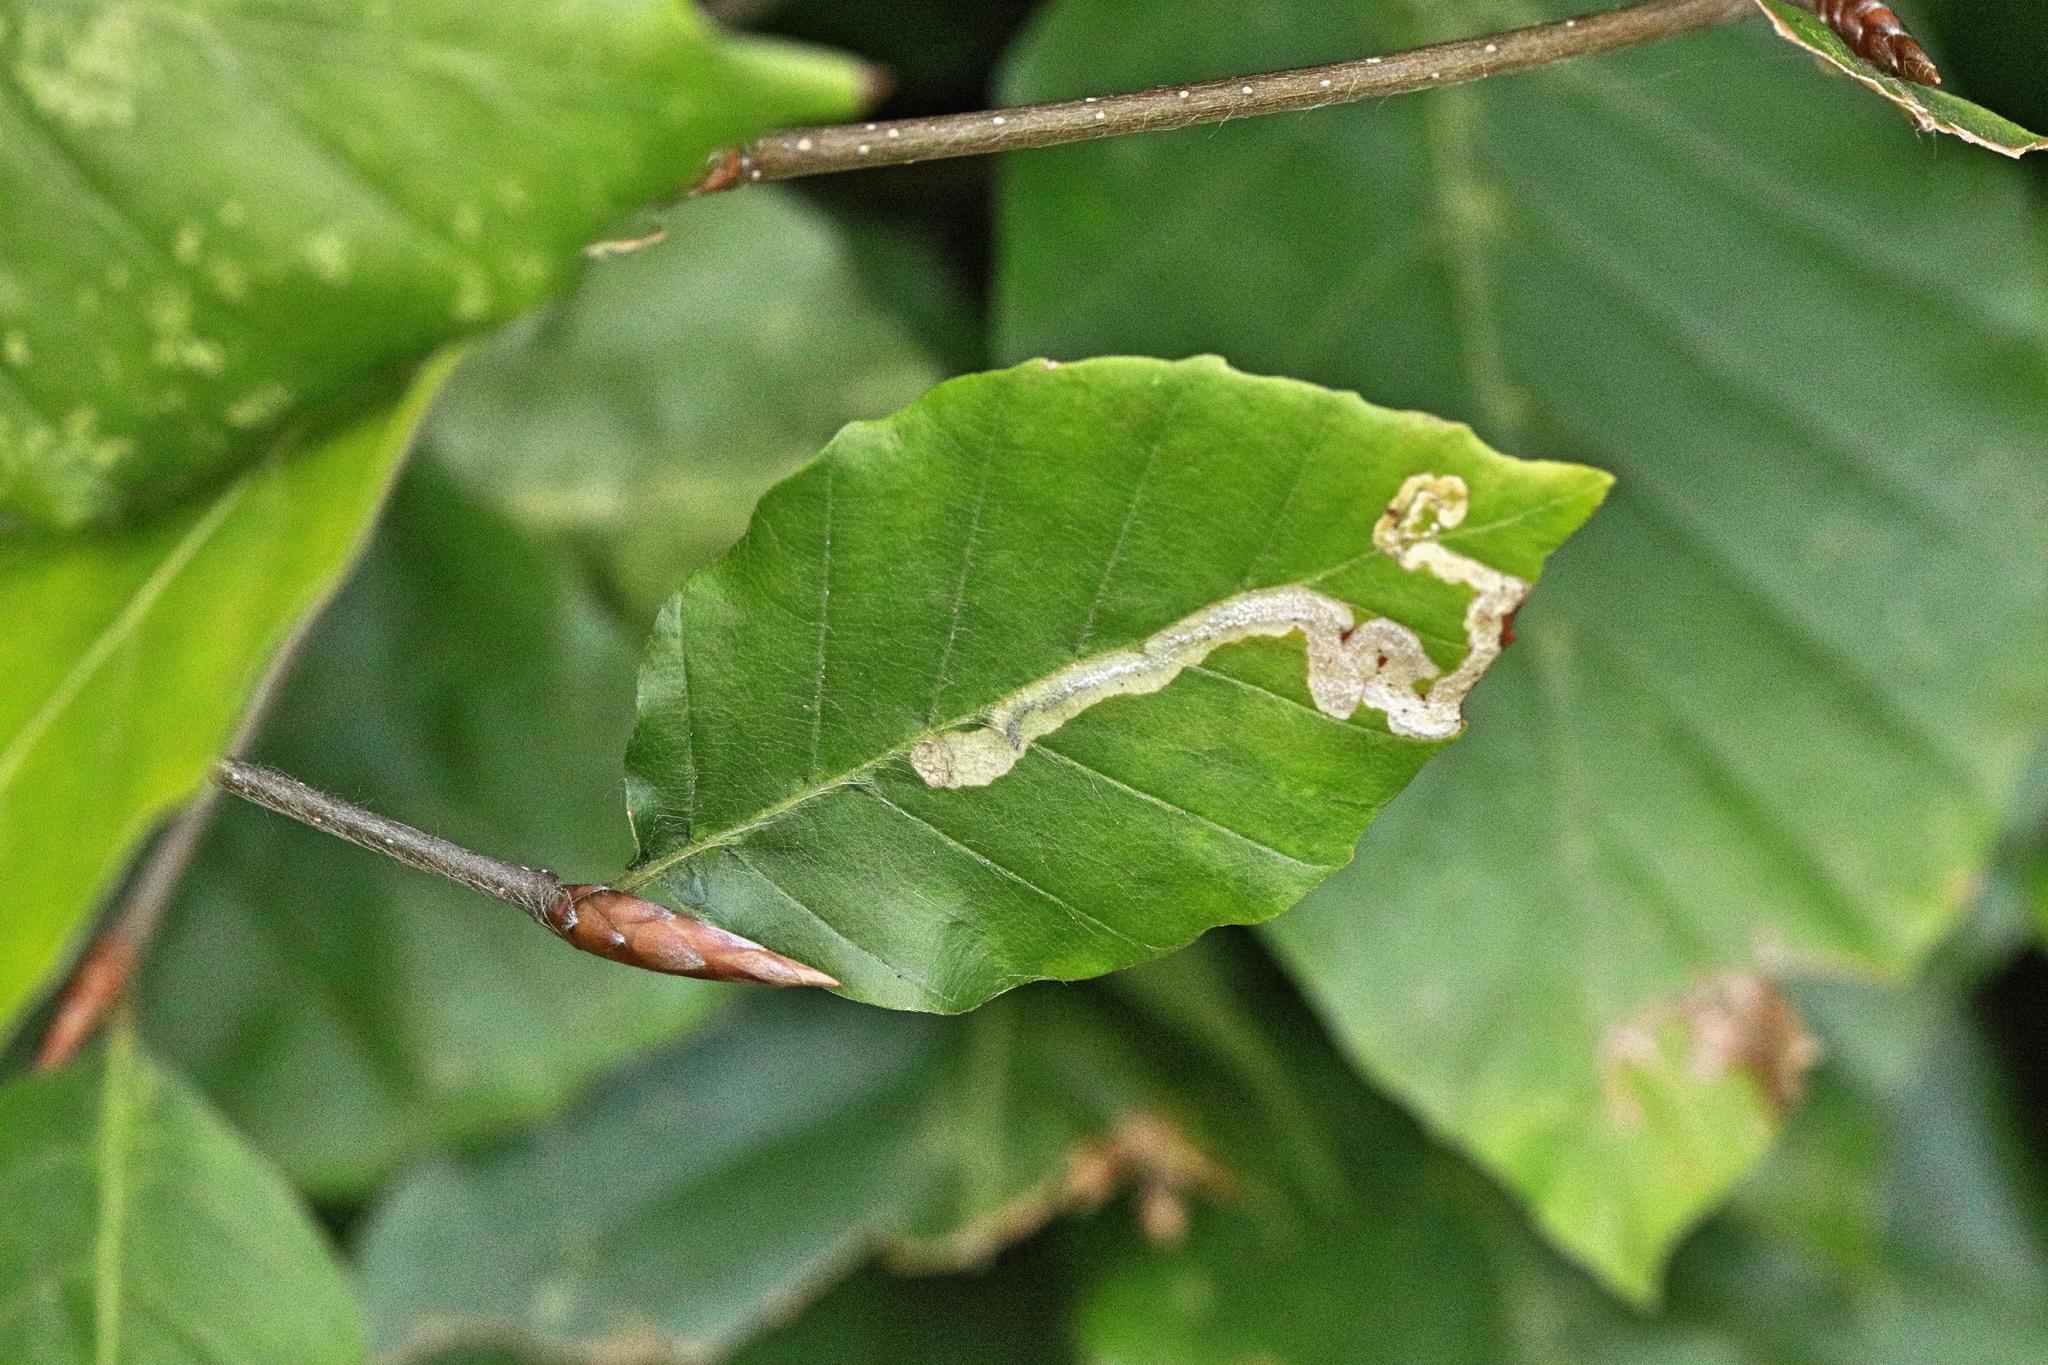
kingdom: Plantae
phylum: Tracheophyta
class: Magnoliopsida
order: Fagales
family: Fagaceae
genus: Fagus
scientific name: Fagus sylvatica
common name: Beech
